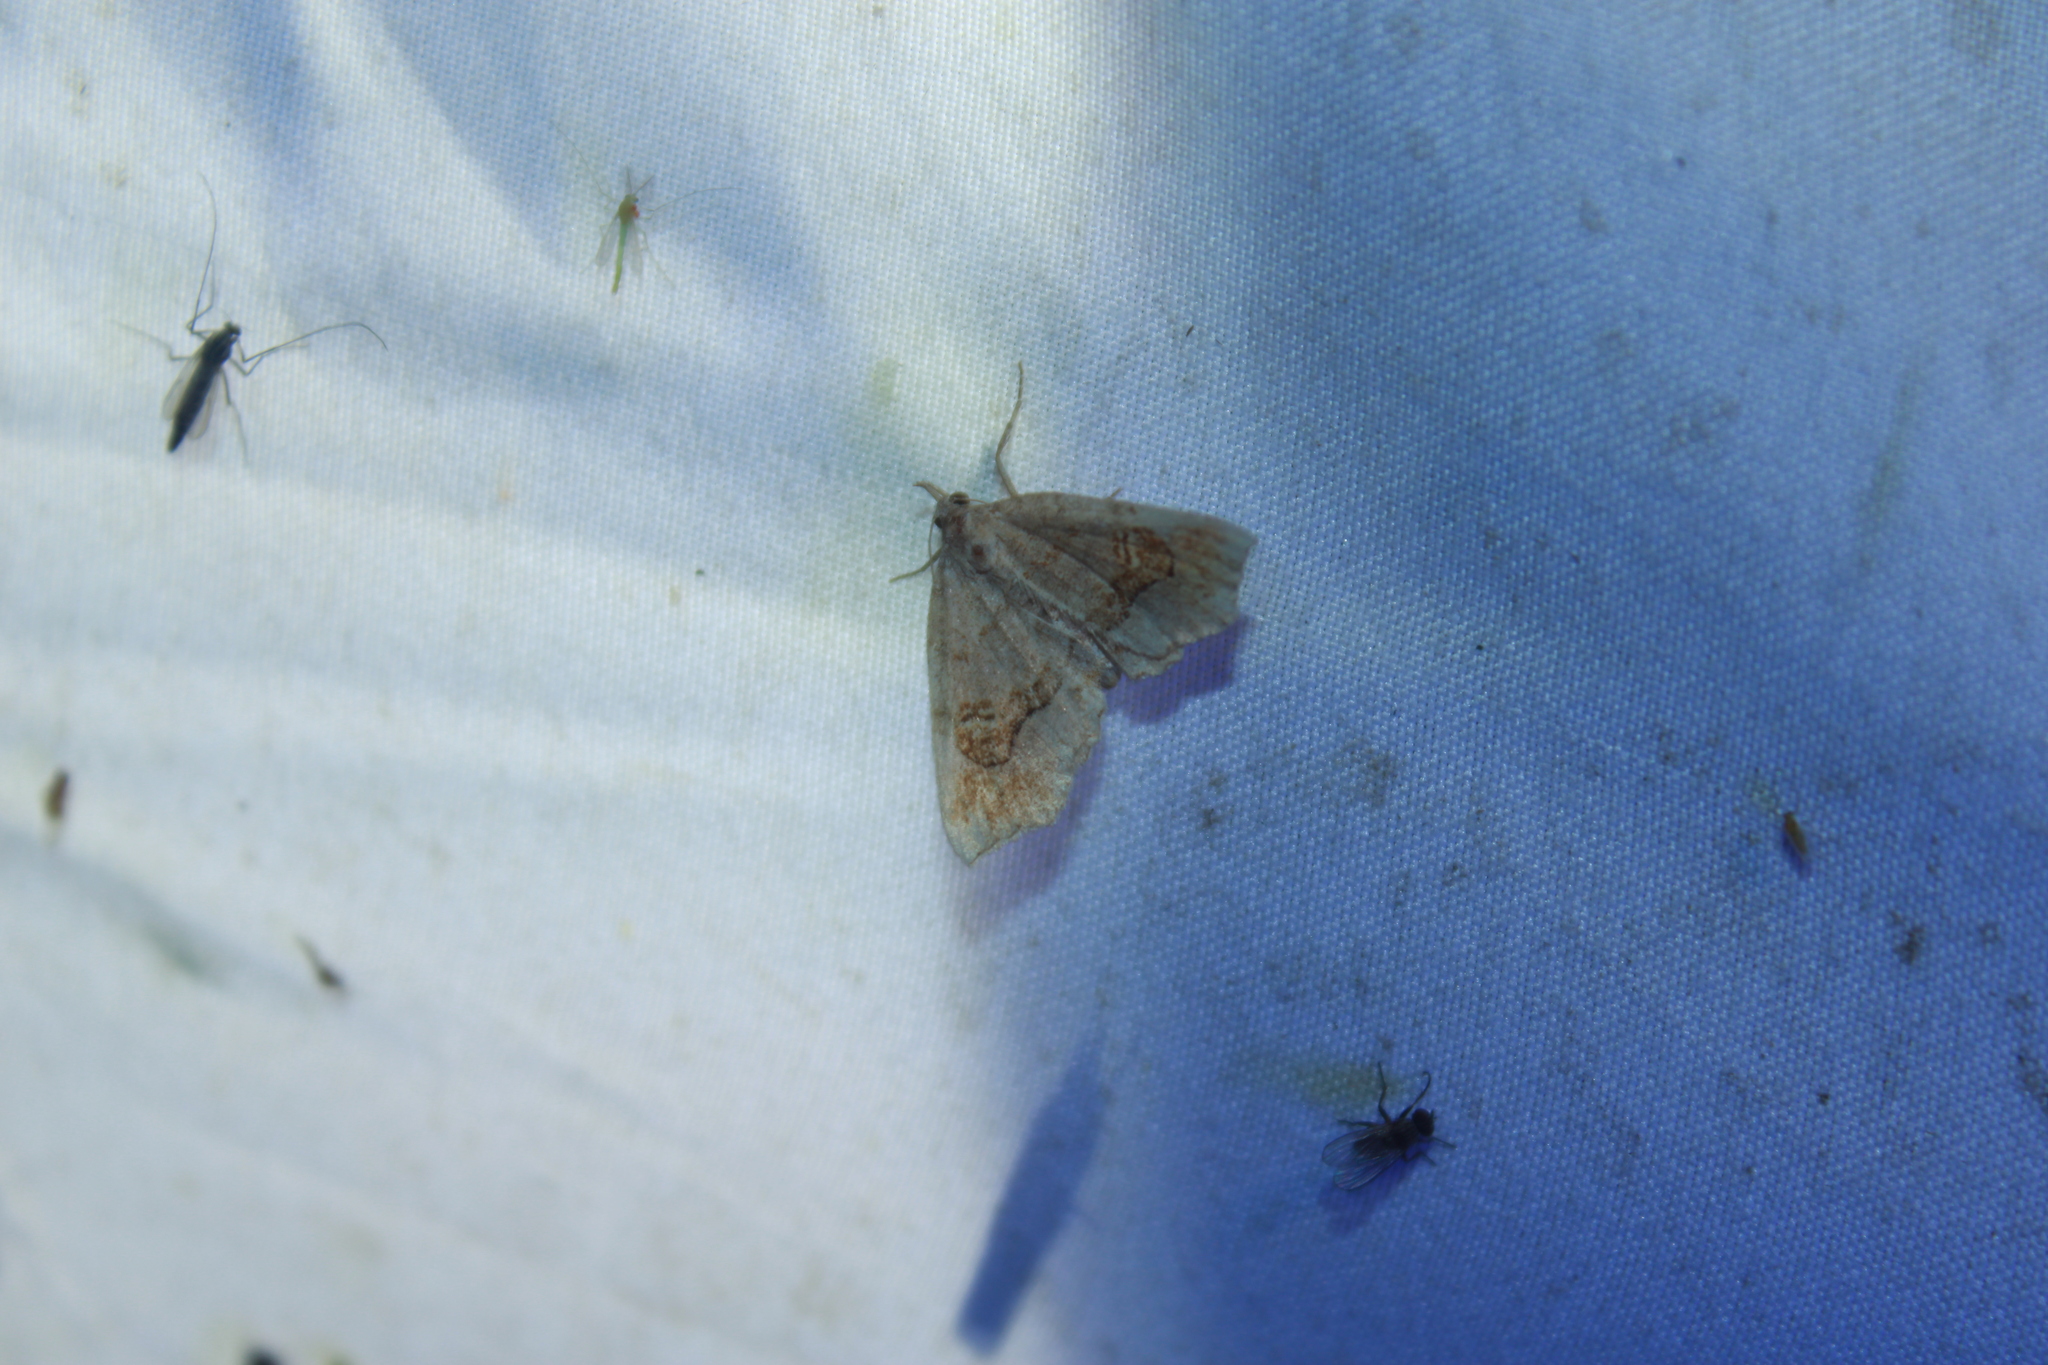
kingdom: Animalia
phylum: Arthropoda
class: Insecta
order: Lepidoptera
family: Erebidae
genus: Pangrapta
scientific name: Pangrapta decoralis
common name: Decorated owlet
